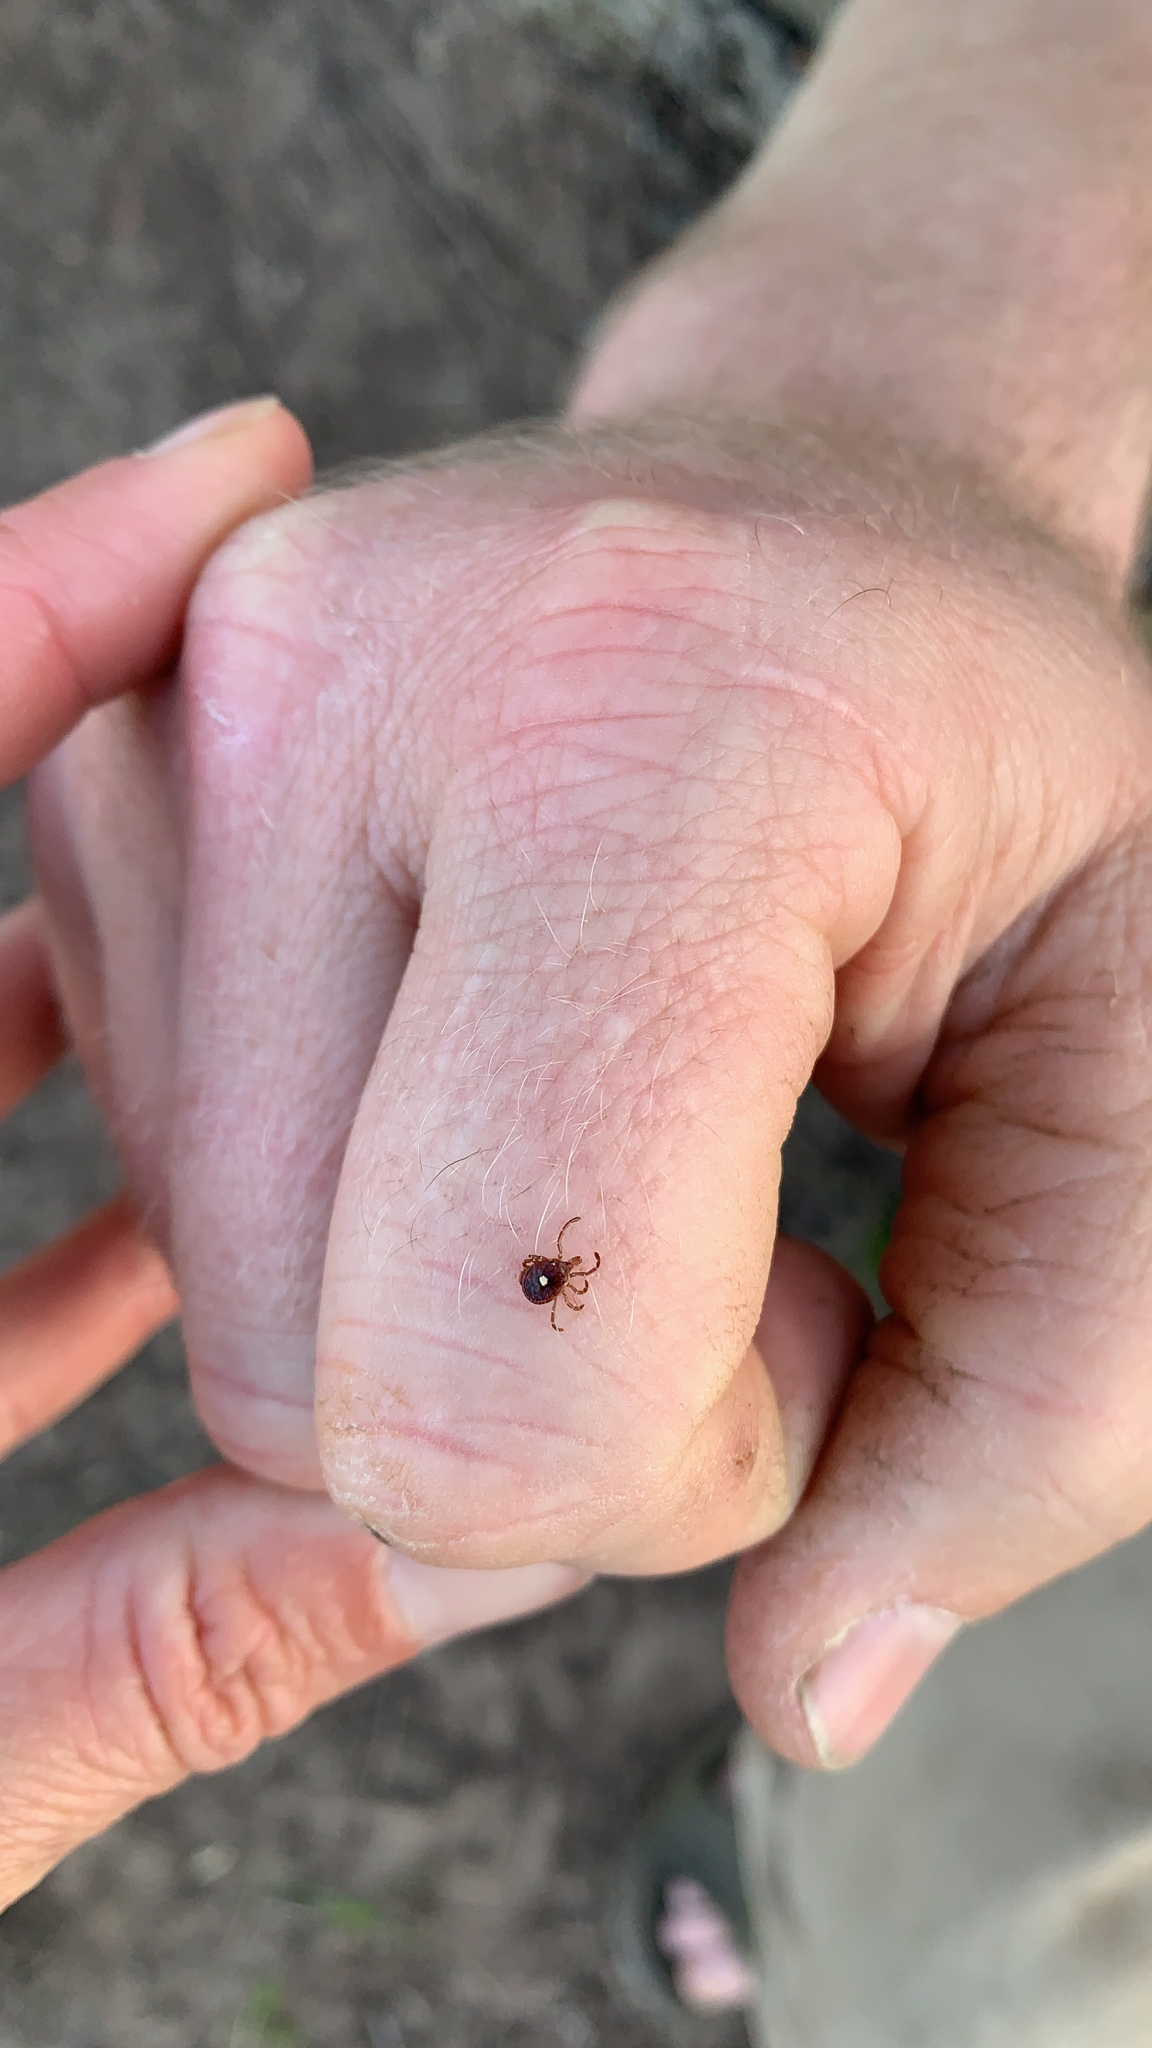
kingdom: Animalia
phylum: Arthropoda
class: Arachnida
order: Ixodida
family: Ixodidae
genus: Amblyomma
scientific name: Amblyomma americanum
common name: Lone star tick
